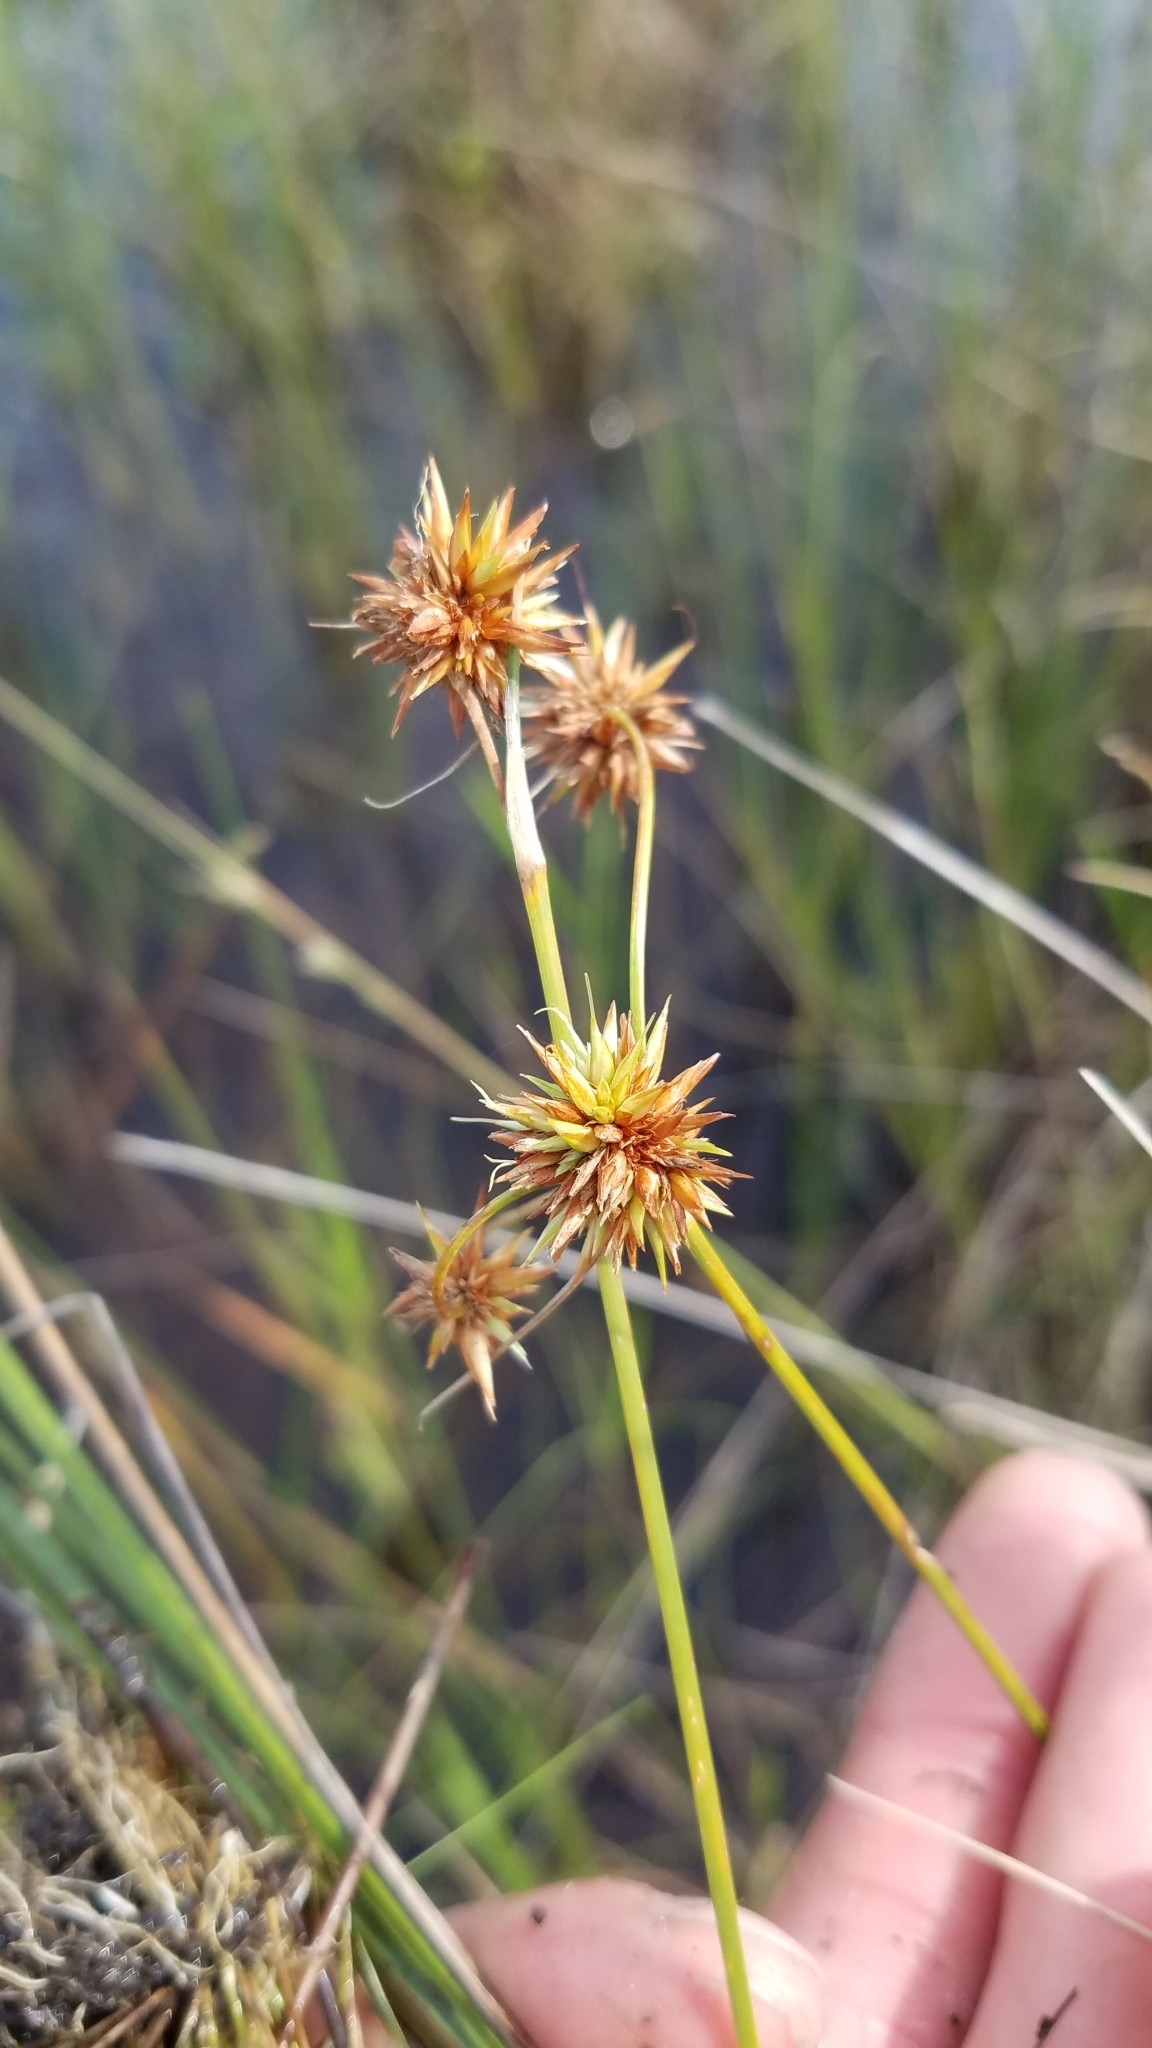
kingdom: Plantae
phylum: Tracheophyta
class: Liliopsida
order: Poales
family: Cyperaceae
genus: Rhynchospora
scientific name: Rhynchospora tracyi
